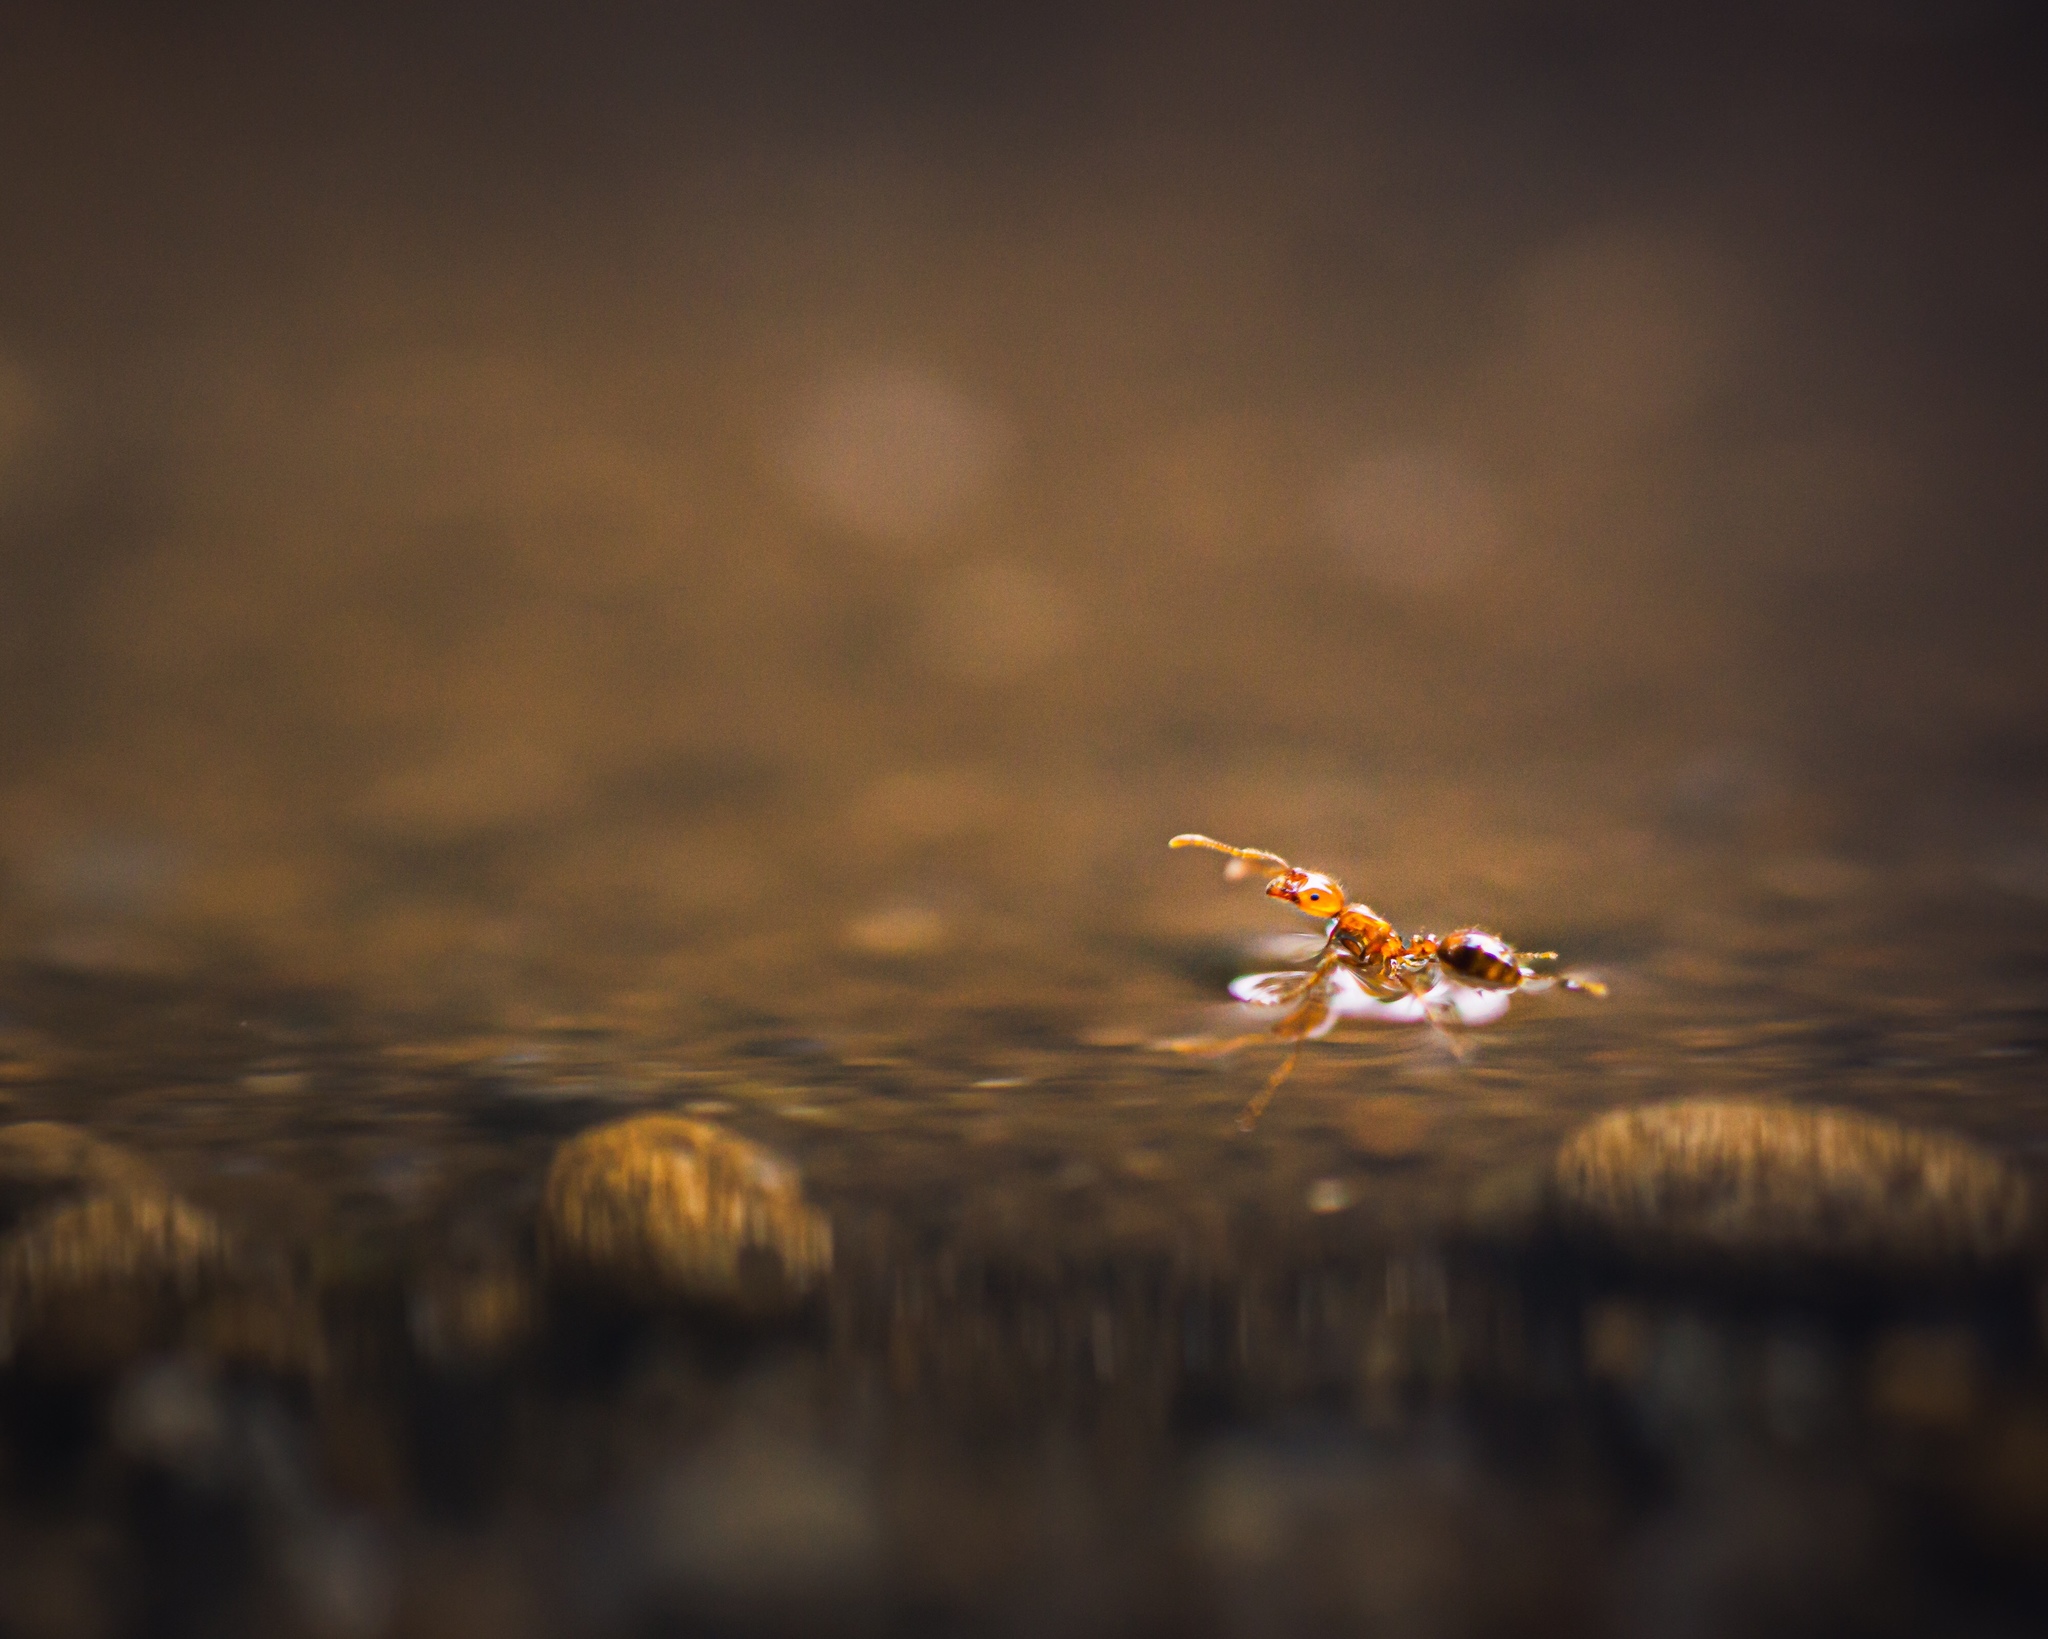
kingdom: Animalia
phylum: Arthropoda
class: Insecta
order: Hymenoptera
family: Formicidae
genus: Solenopsis
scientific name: Solenopsis geminata
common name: Tropical fire ant
